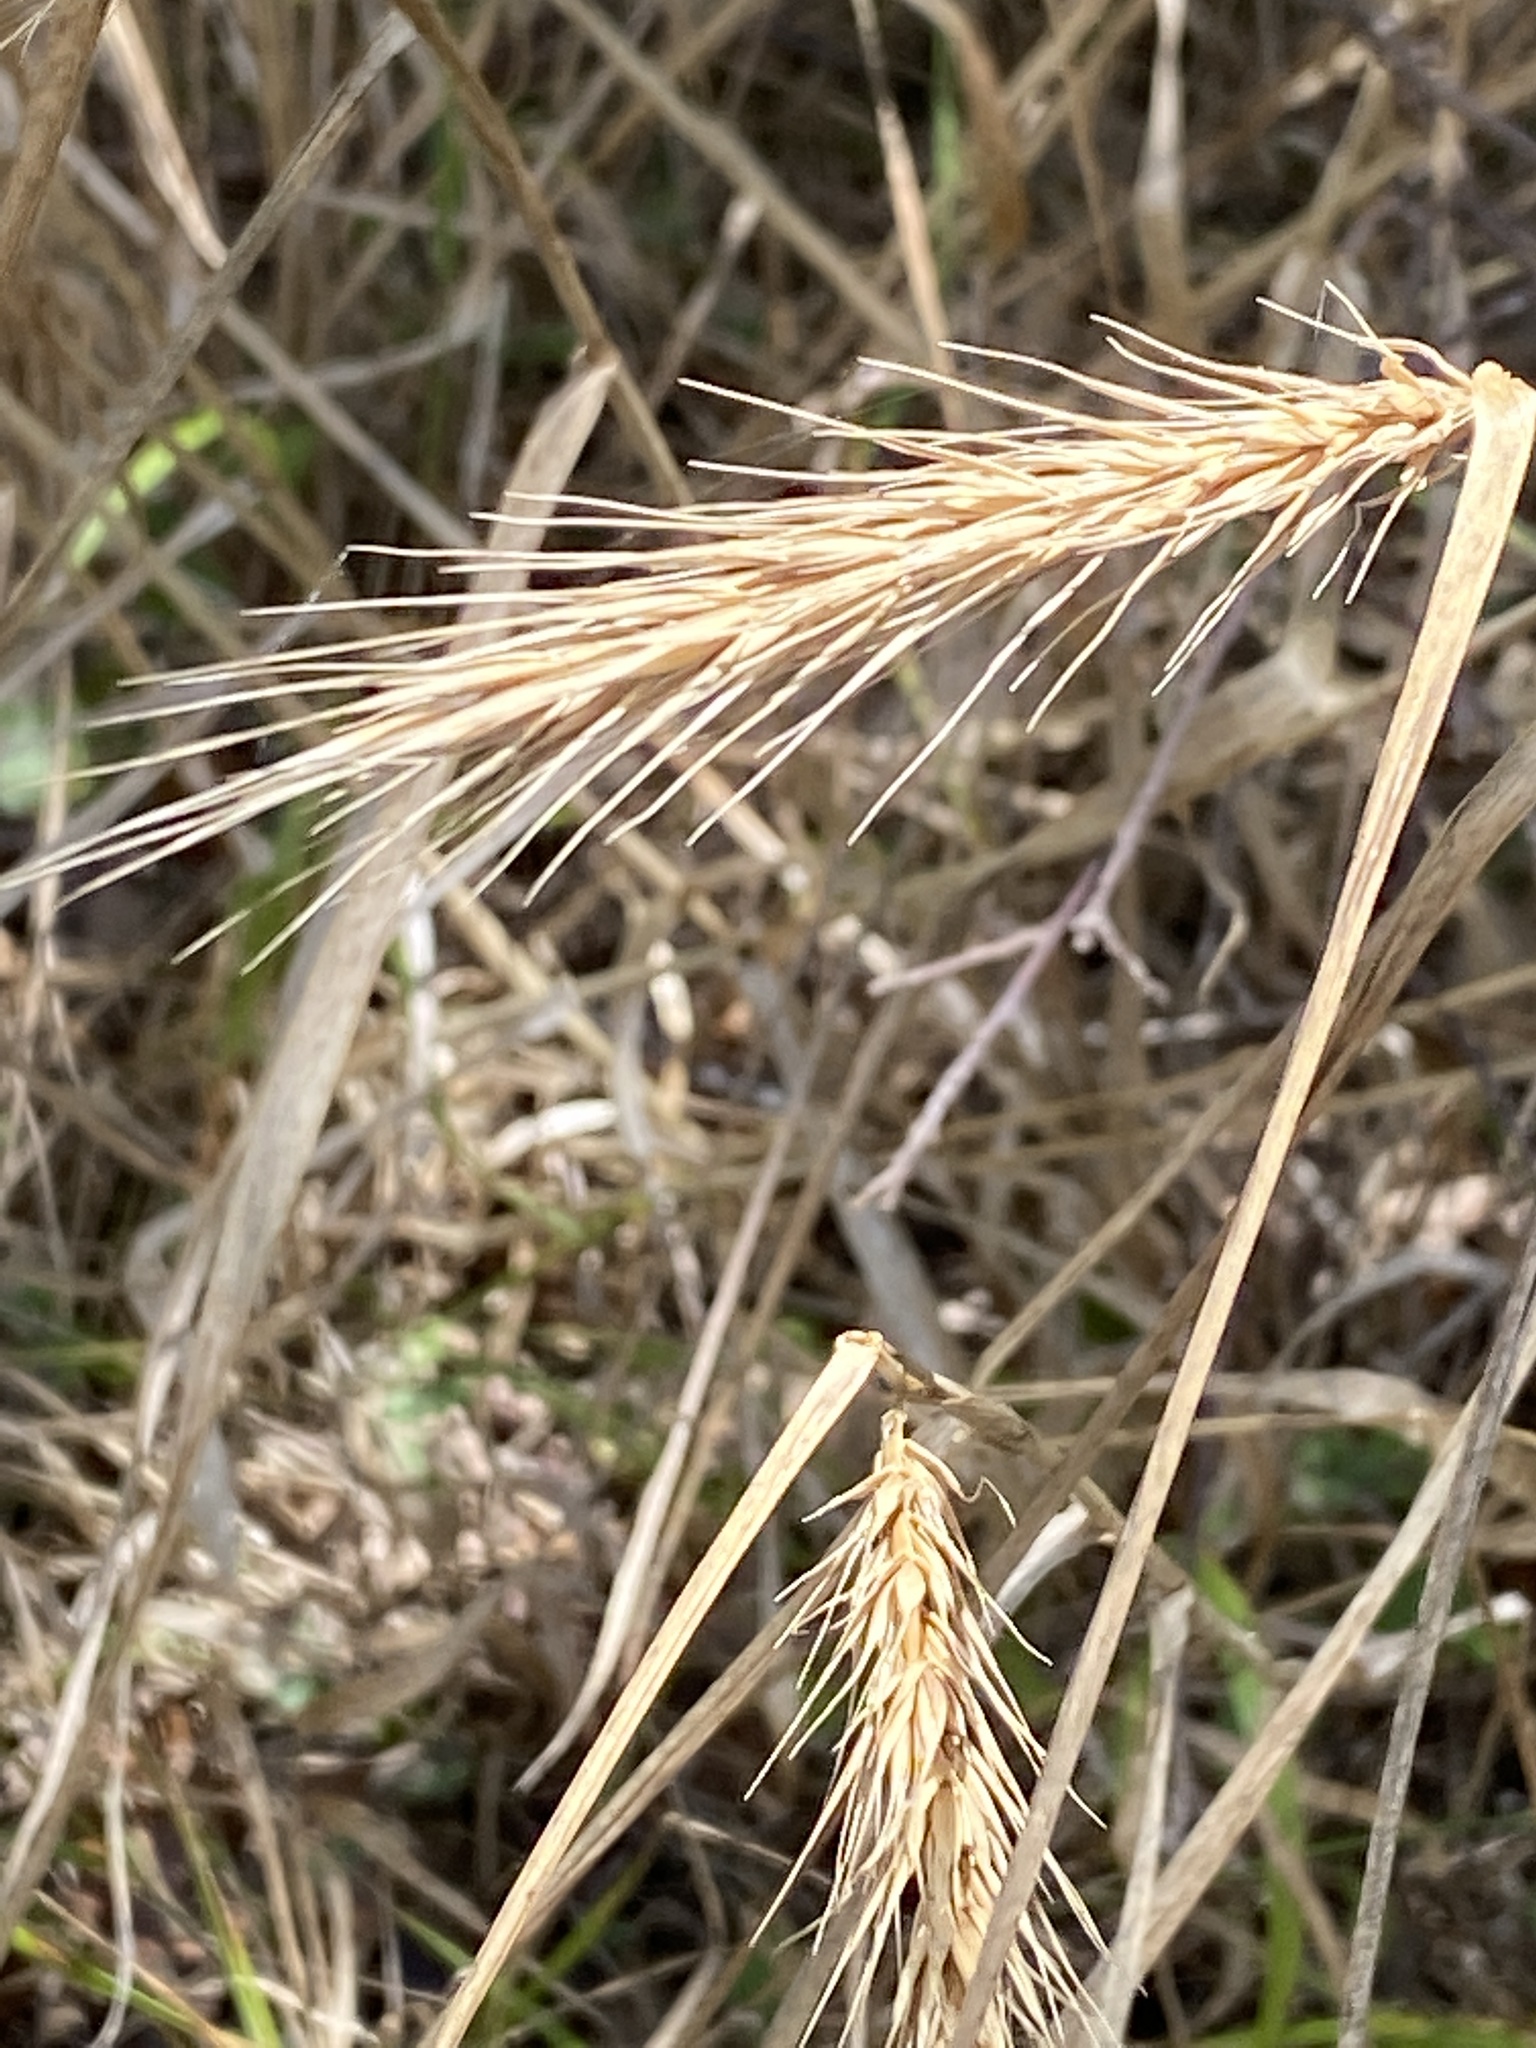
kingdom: Plantae
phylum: Tracheophyta
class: Liliopsida
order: Poales
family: Poaceae
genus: Elymus
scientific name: Elymus virginicus
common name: Common eastern wildrye
